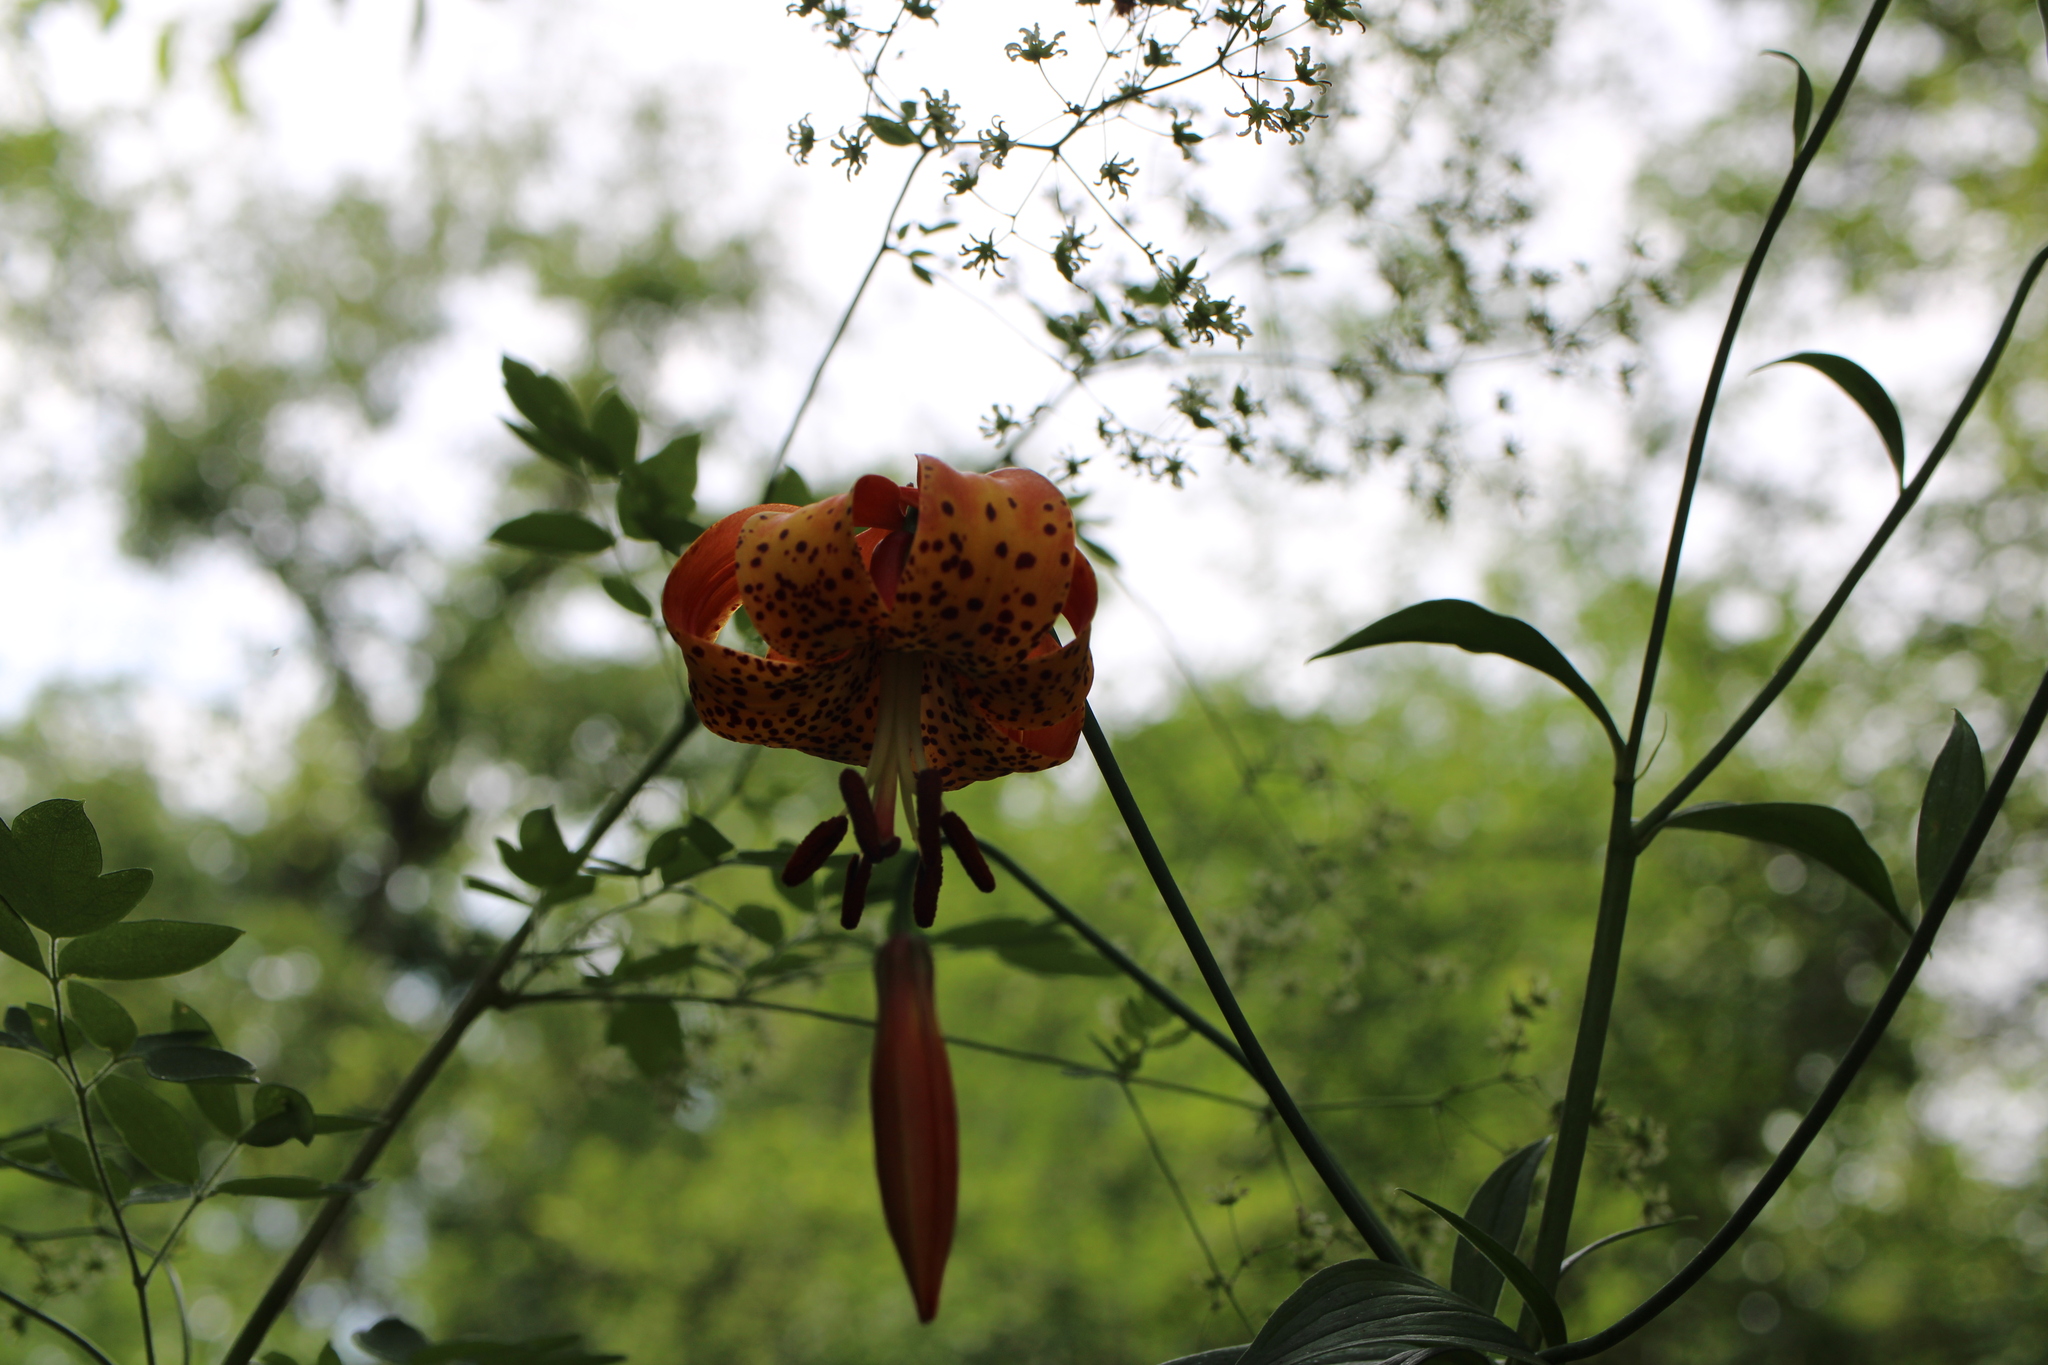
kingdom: Plantae
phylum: Tracheophyta
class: Liliopsida
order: Liliales
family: Liliaceae
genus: Lilium
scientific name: Lilium michiganense
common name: Michigan lily
